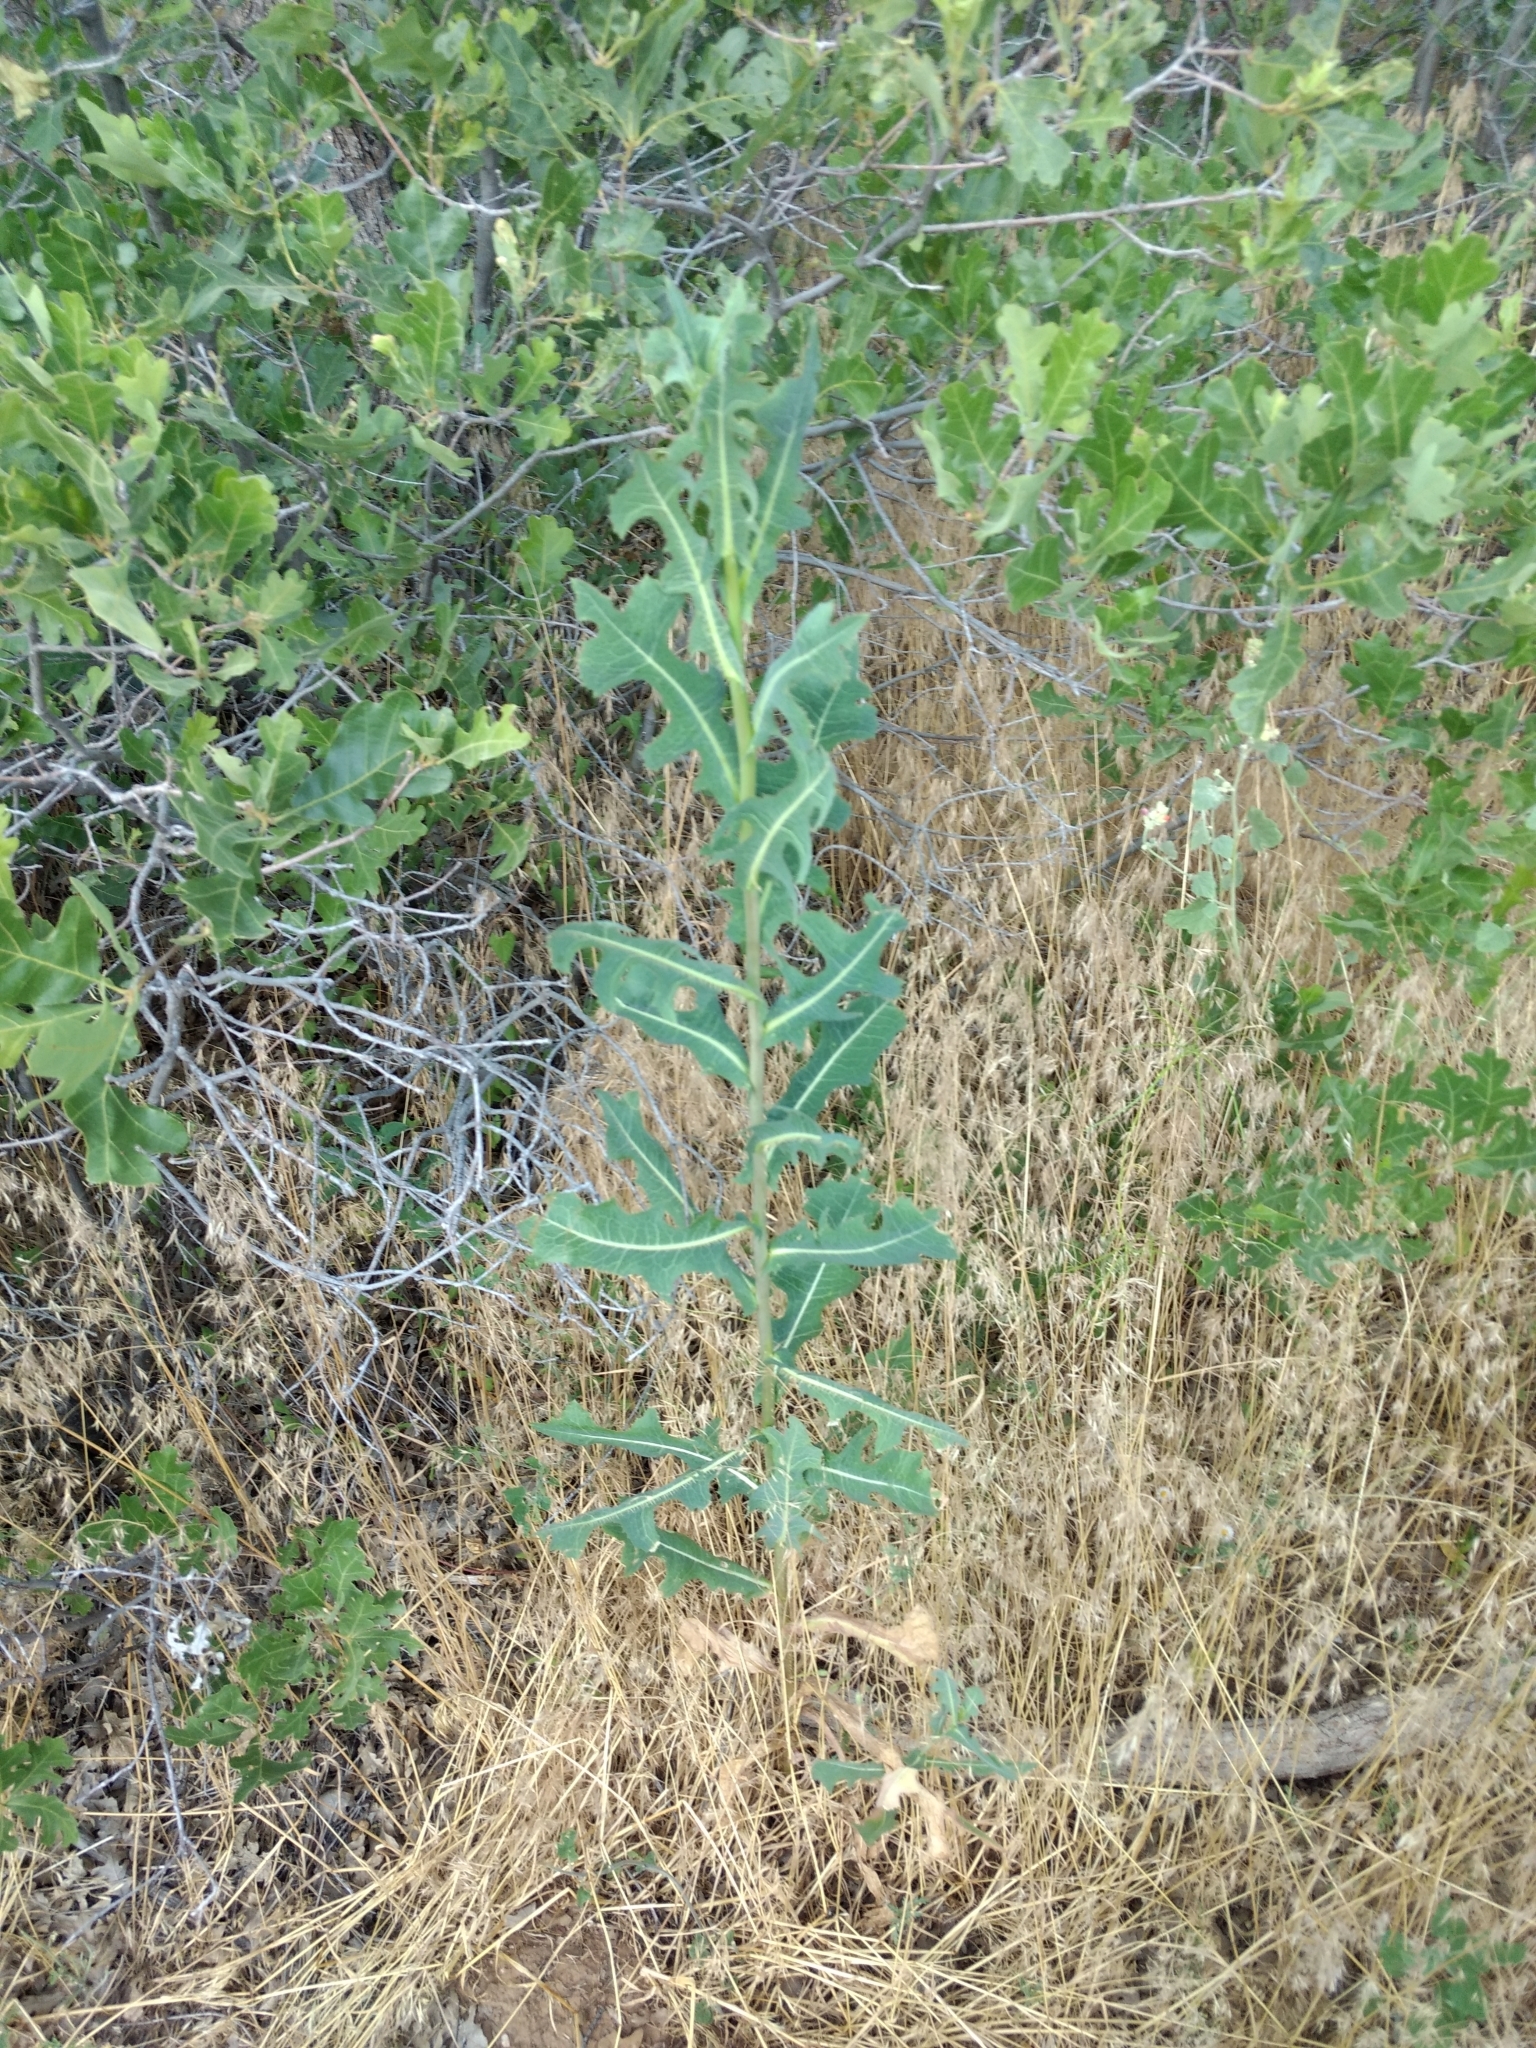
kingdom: Plantae
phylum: Tracheophyta
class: Magnoliopsida
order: Asterales
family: Asteraceae
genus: Lactuca
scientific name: Lactuca serriola
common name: Prickly lettuce
